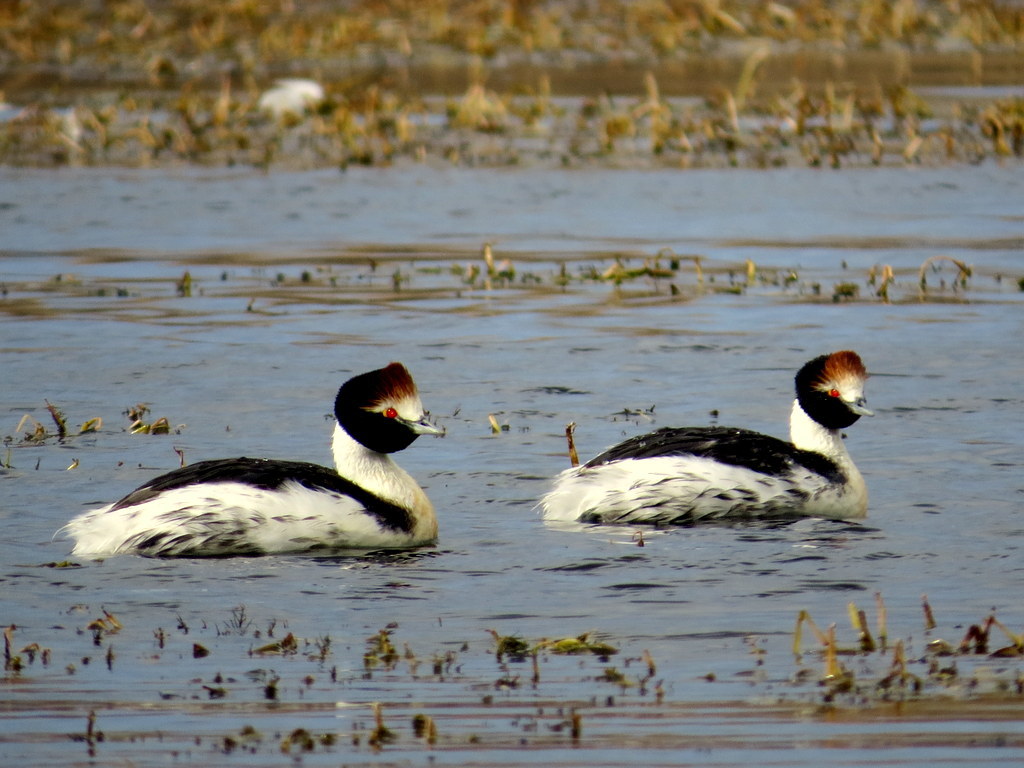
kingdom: Animalia
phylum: Chordata
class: Aves
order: Podicipediformes
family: Podicipedidae
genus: Podiceps
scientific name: Podiceps gallardoi
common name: Hooded grebe
